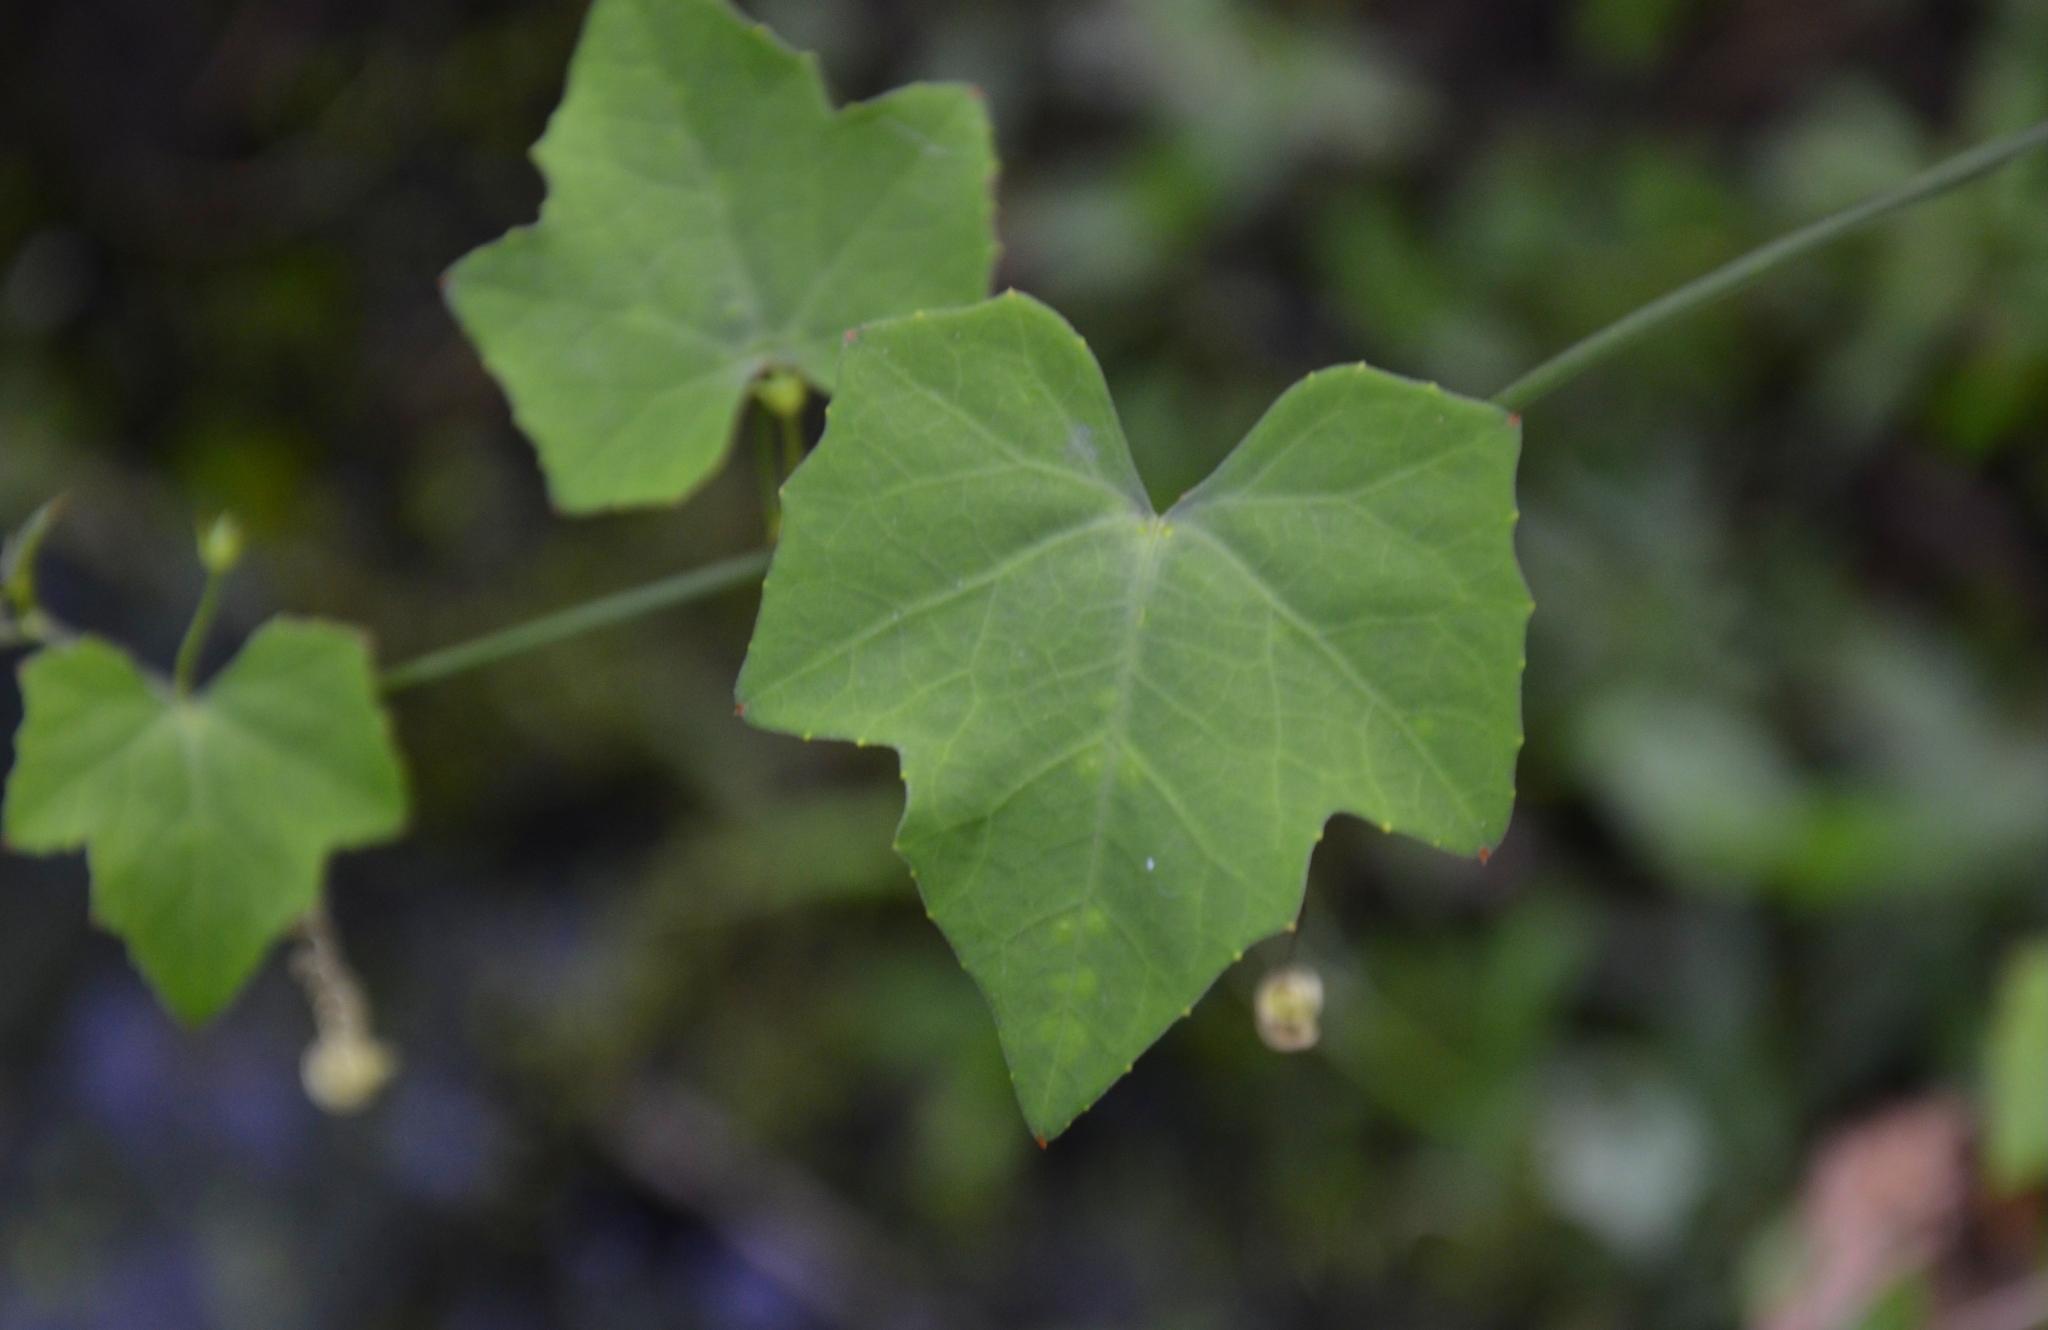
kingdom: Plantae
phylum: Tracheophyta
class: Magnoliopsida
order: Cucurbitales
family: Cucurbitaceae
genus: Coccinia
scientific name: Coccinia grandis
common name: Ivy gourd
